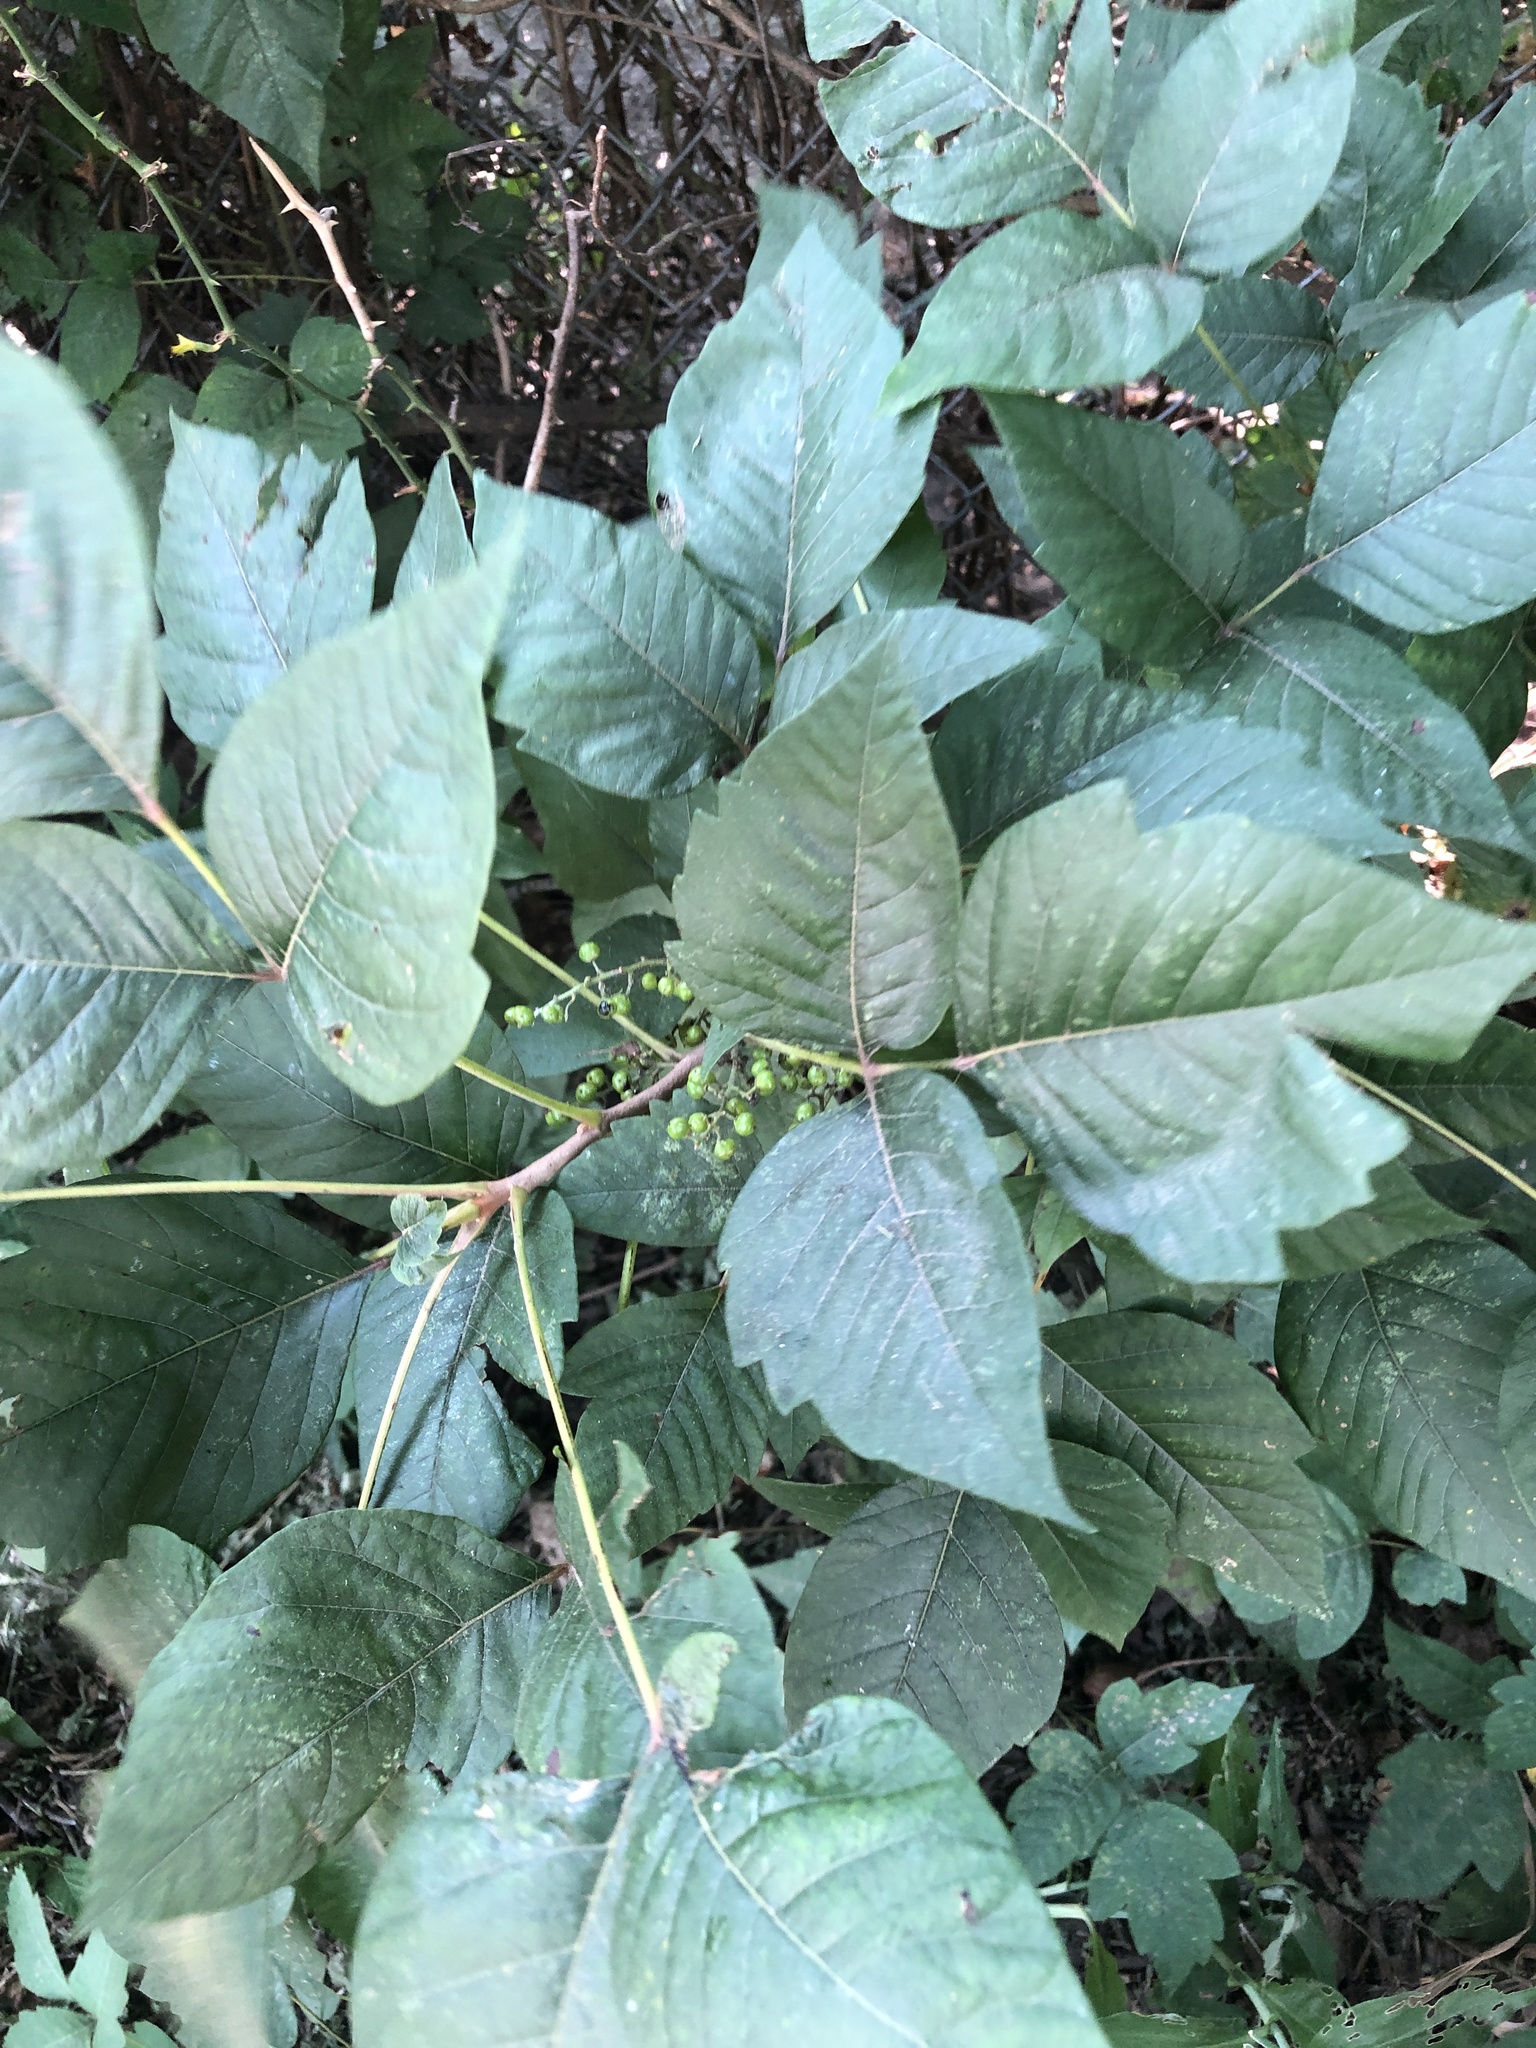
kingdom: Plantae
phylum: Tracheophyta
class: Magnoliopsida
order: Sapindales
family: Anacardiaceae
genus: Toxicodendron
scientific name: Toxicodendron radicans
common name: Poison ivy
